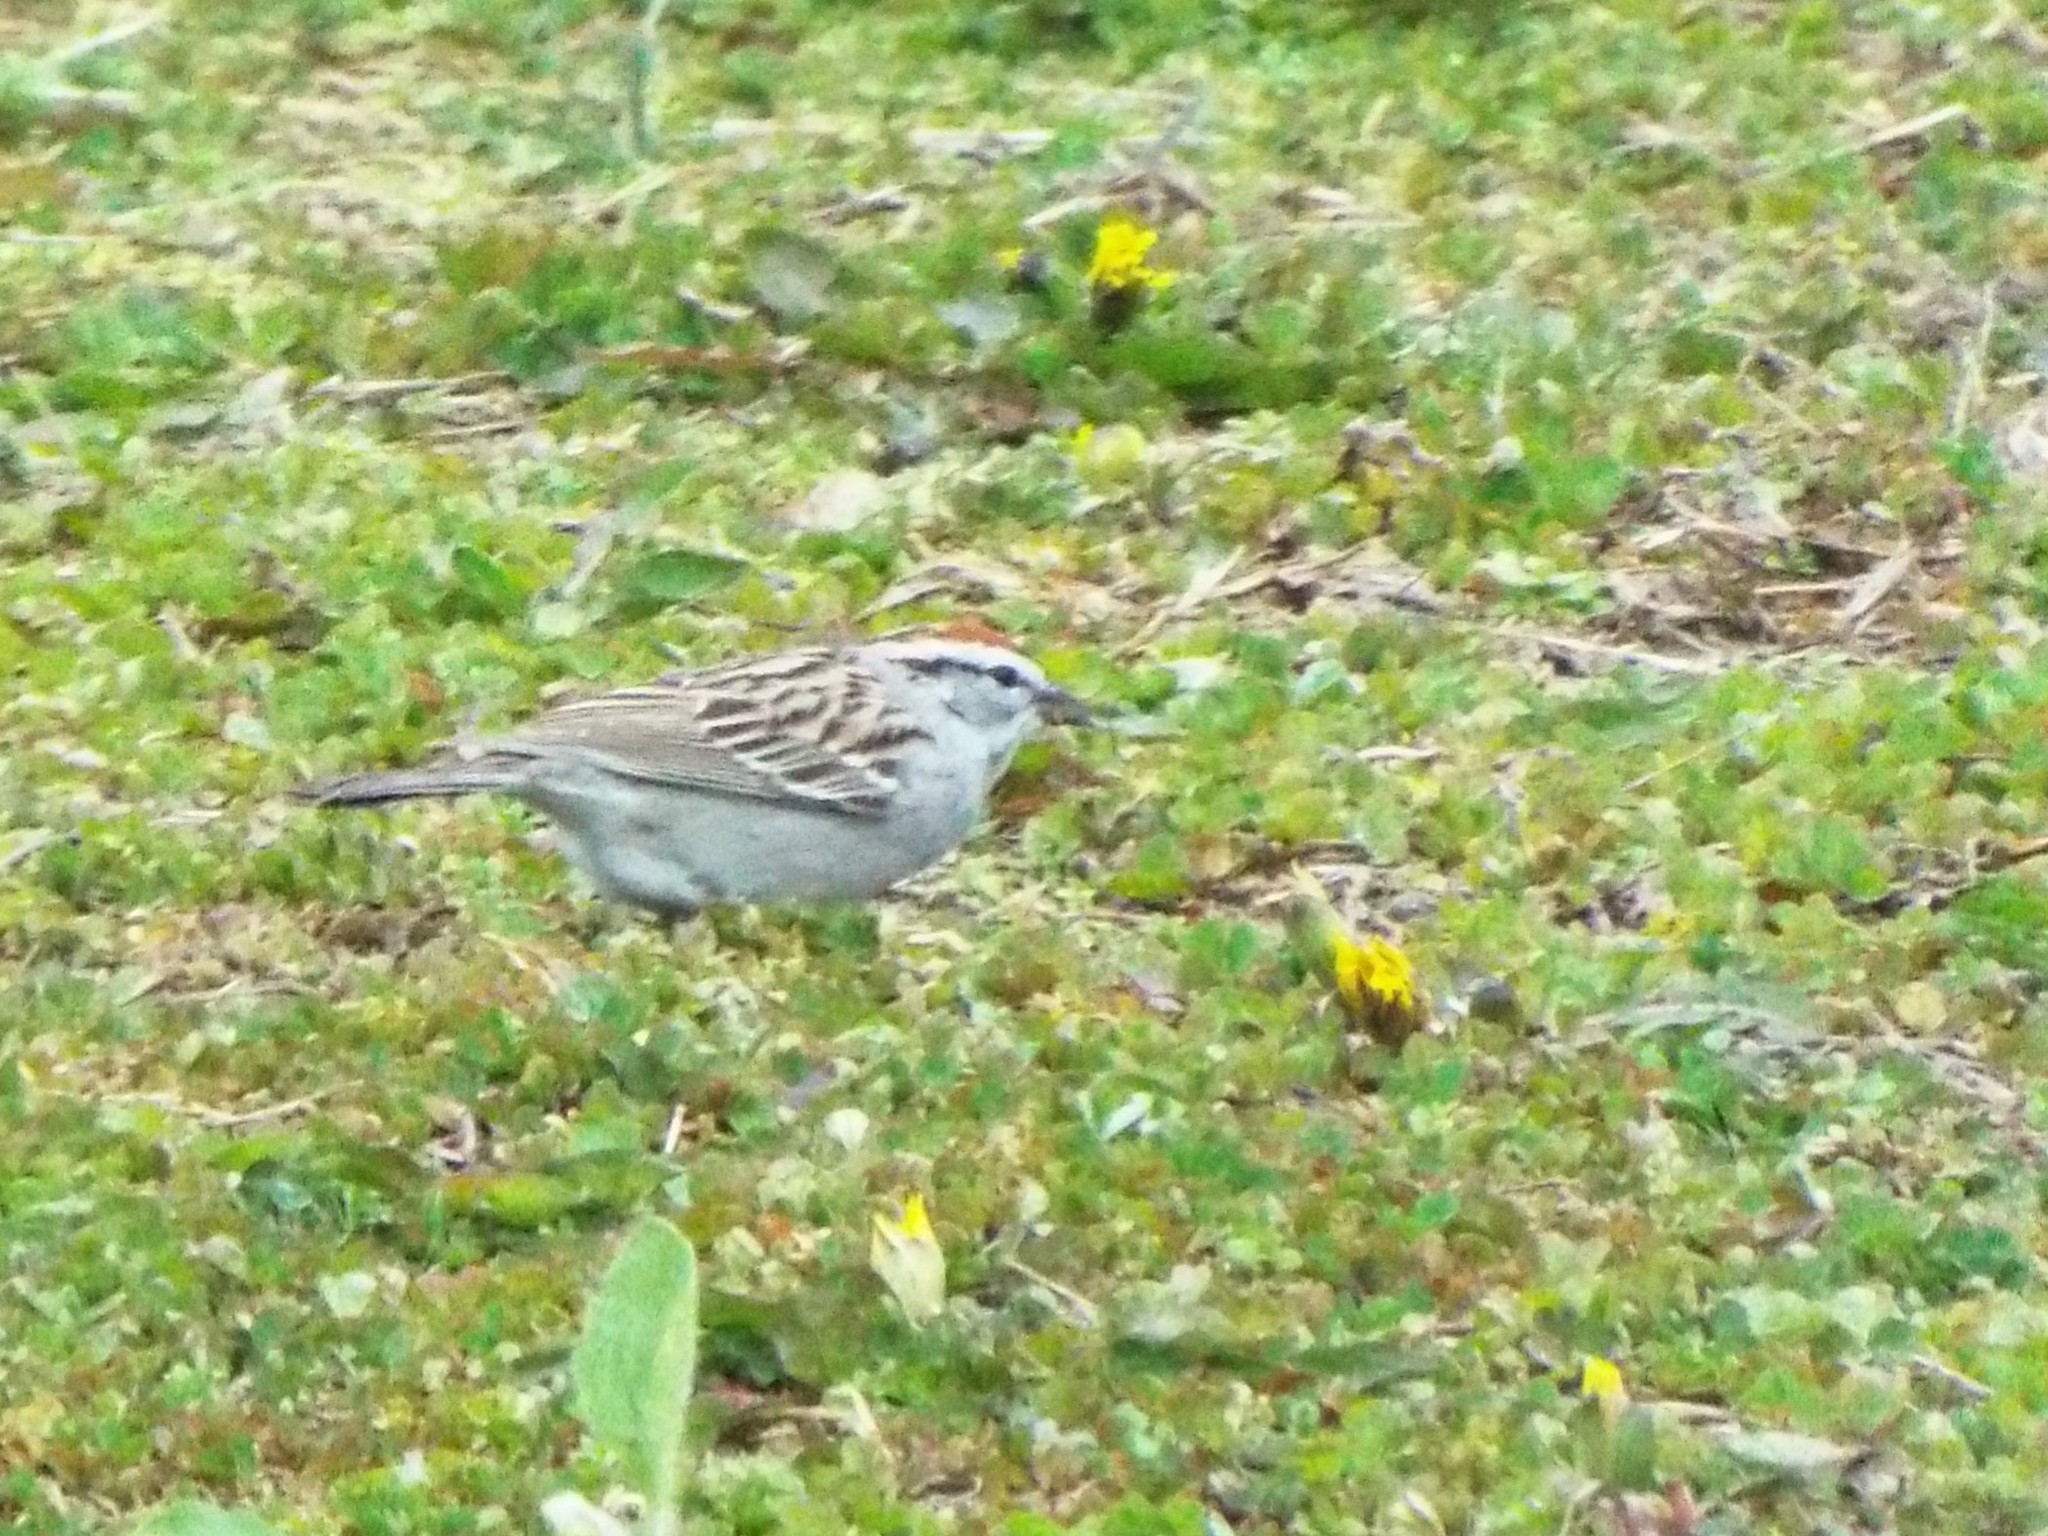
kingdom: Animalia
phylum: Chordata
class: Aves
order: Passeriformes
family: Passerellidae
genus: Spizella
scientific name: Spizella passerina
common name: Chipping sparrow
